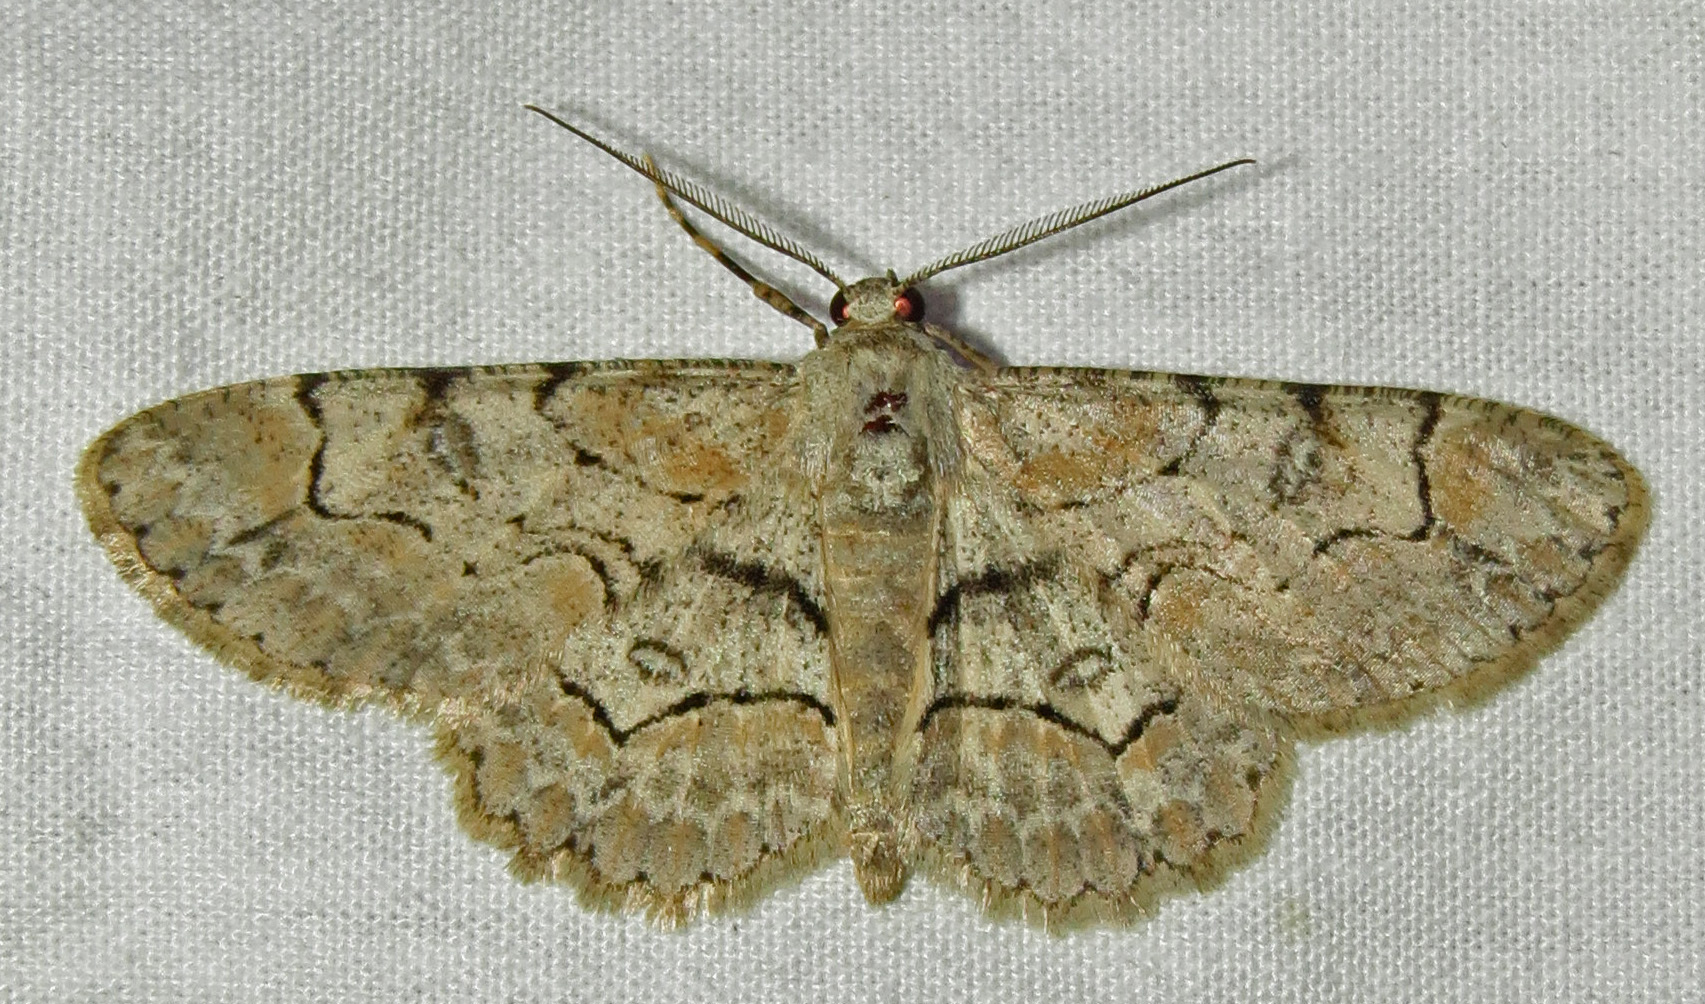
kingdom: Animalia
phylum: Arthropoda
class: Insecta
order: Lepidoptera
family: Geometridae
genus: Iridopsis
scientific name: Iridopsis larvaria
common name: Bent-line gray
